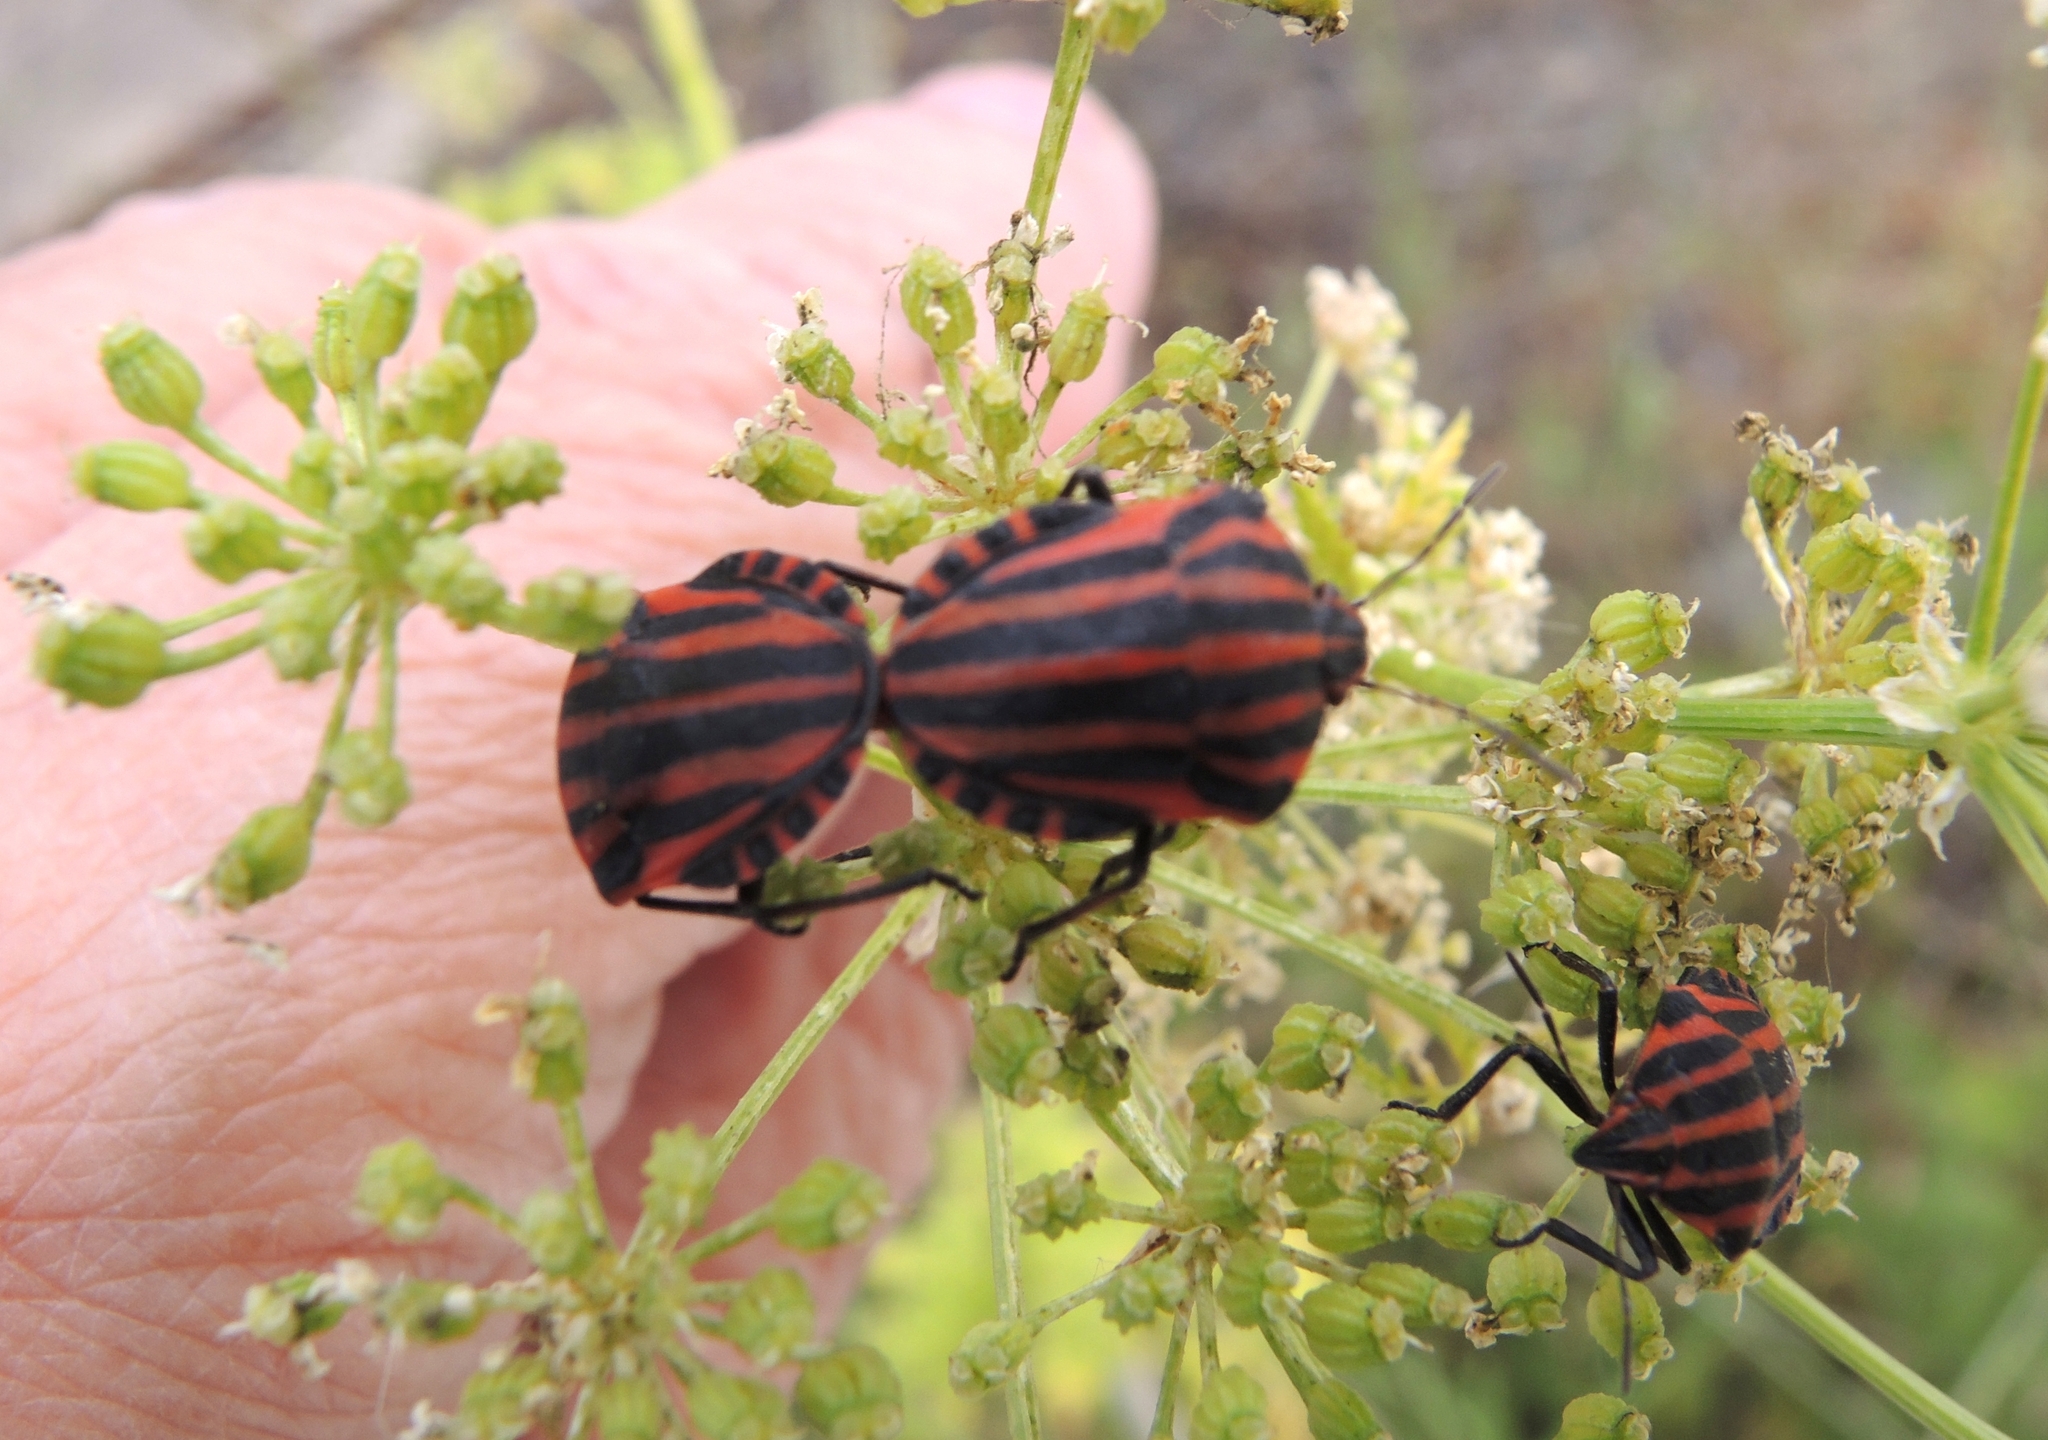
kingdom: Animalia
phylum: Arthropoda
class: Insecta
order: Hemiptera
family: Pentatomidae
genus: Graphosoma
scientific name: Graphosoma italicum
